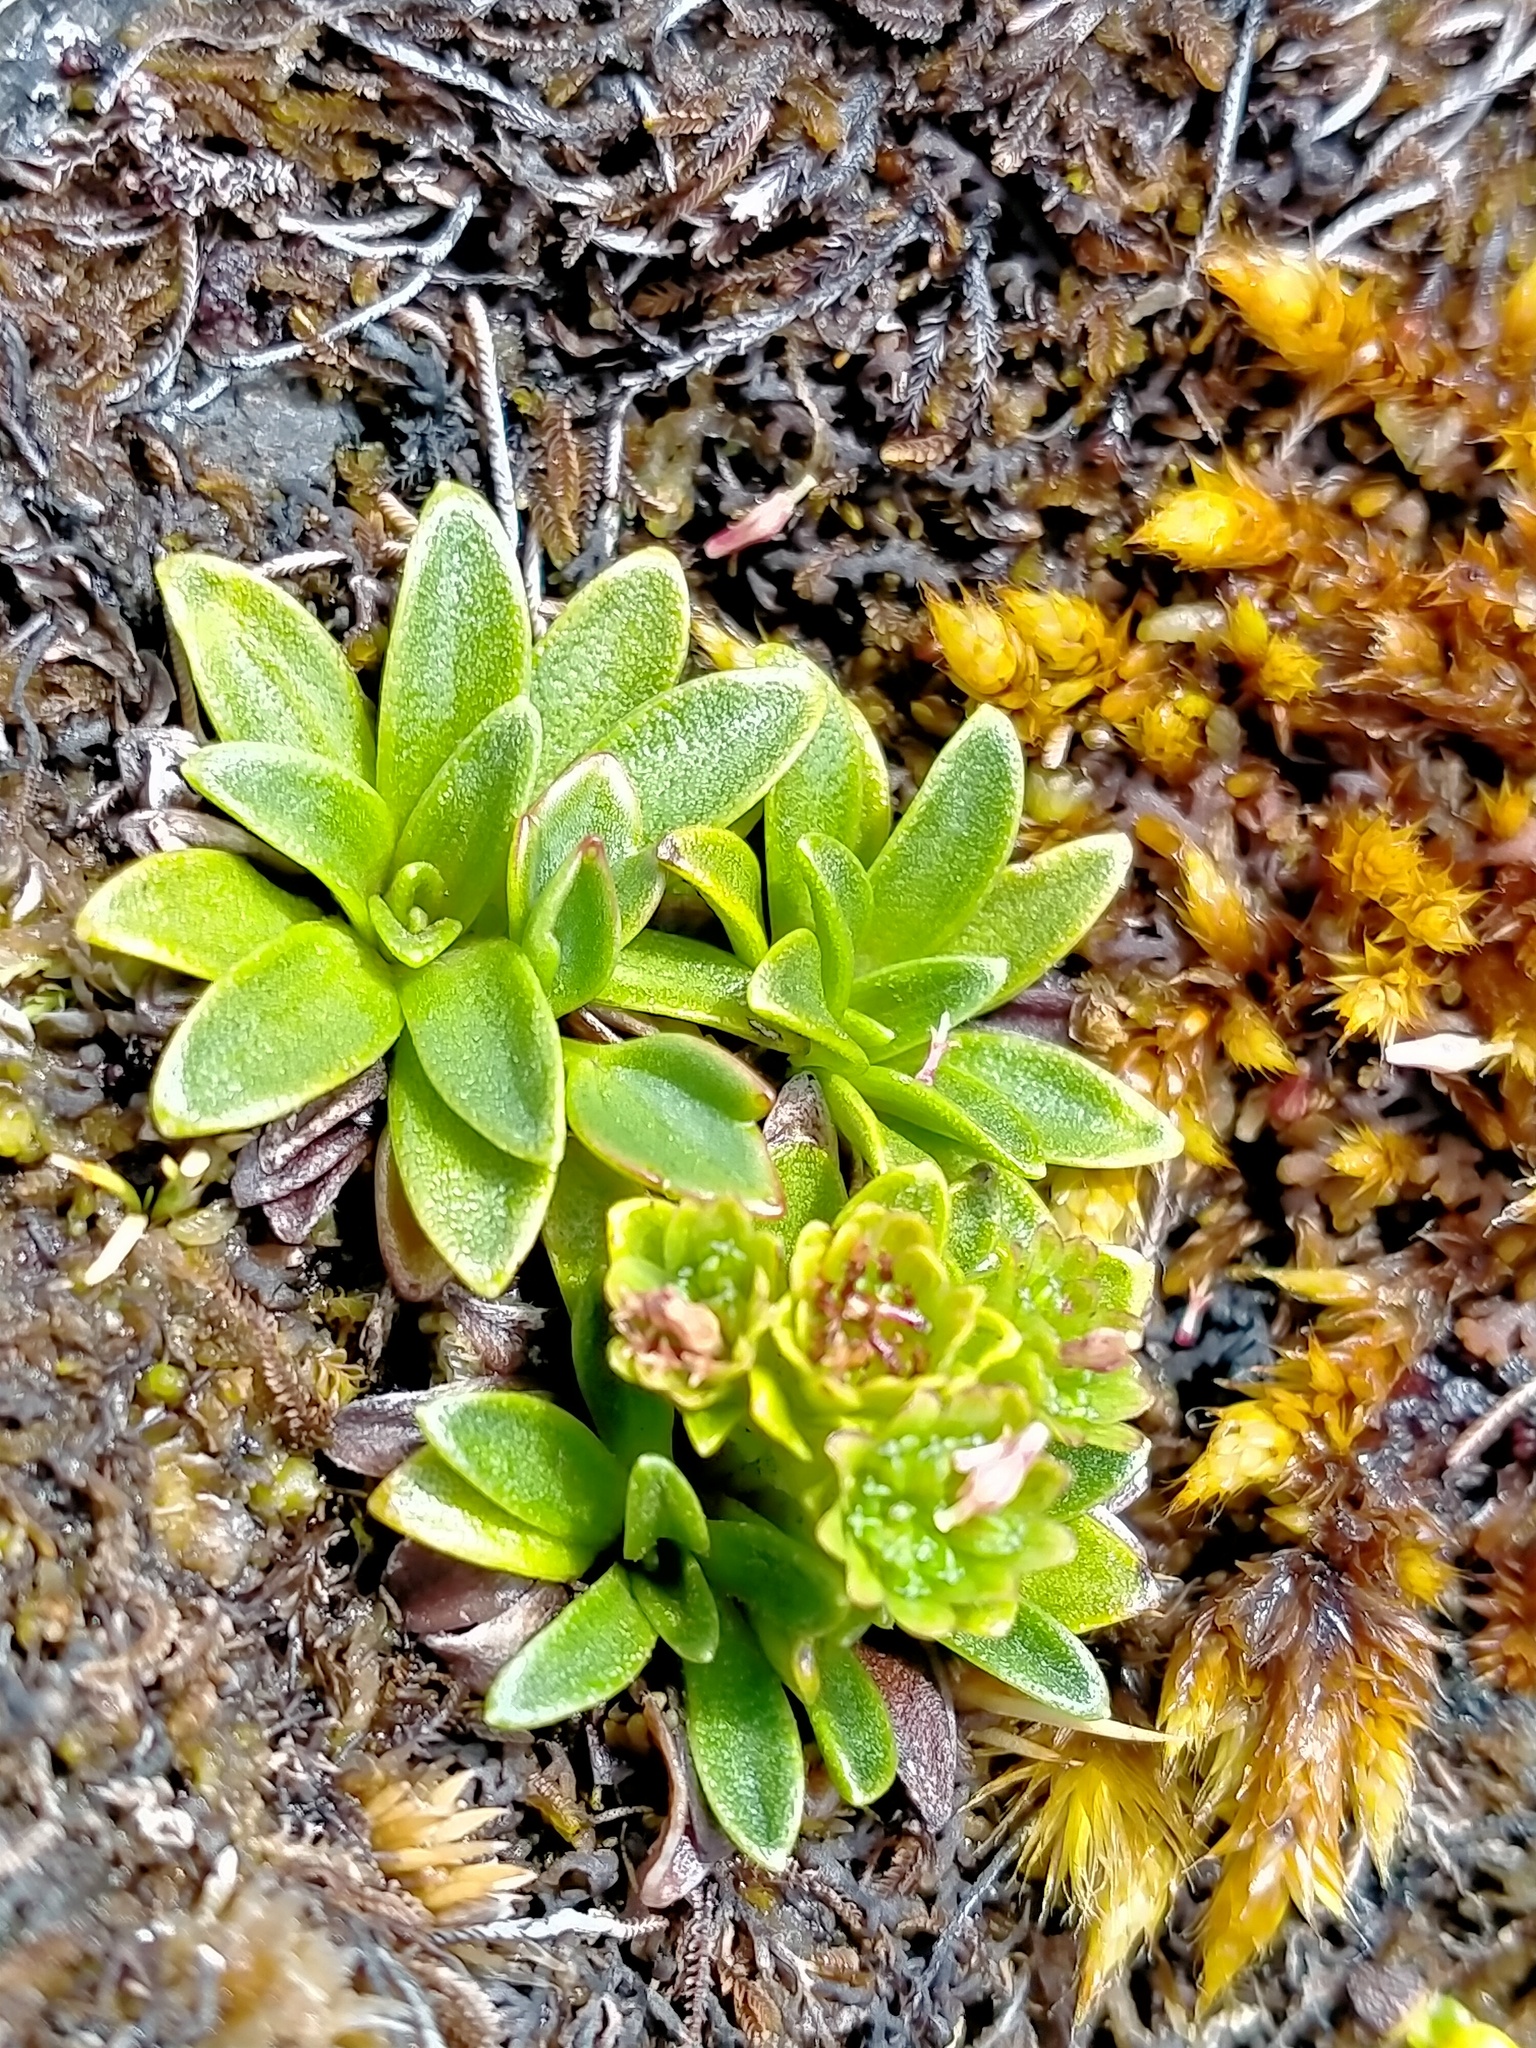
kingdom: Plantae
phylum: Tracheophyta
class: Magnoliopsida
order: Asterales
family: Asteraceae
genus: Abrotanella
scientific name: Abrotanella spathulata
